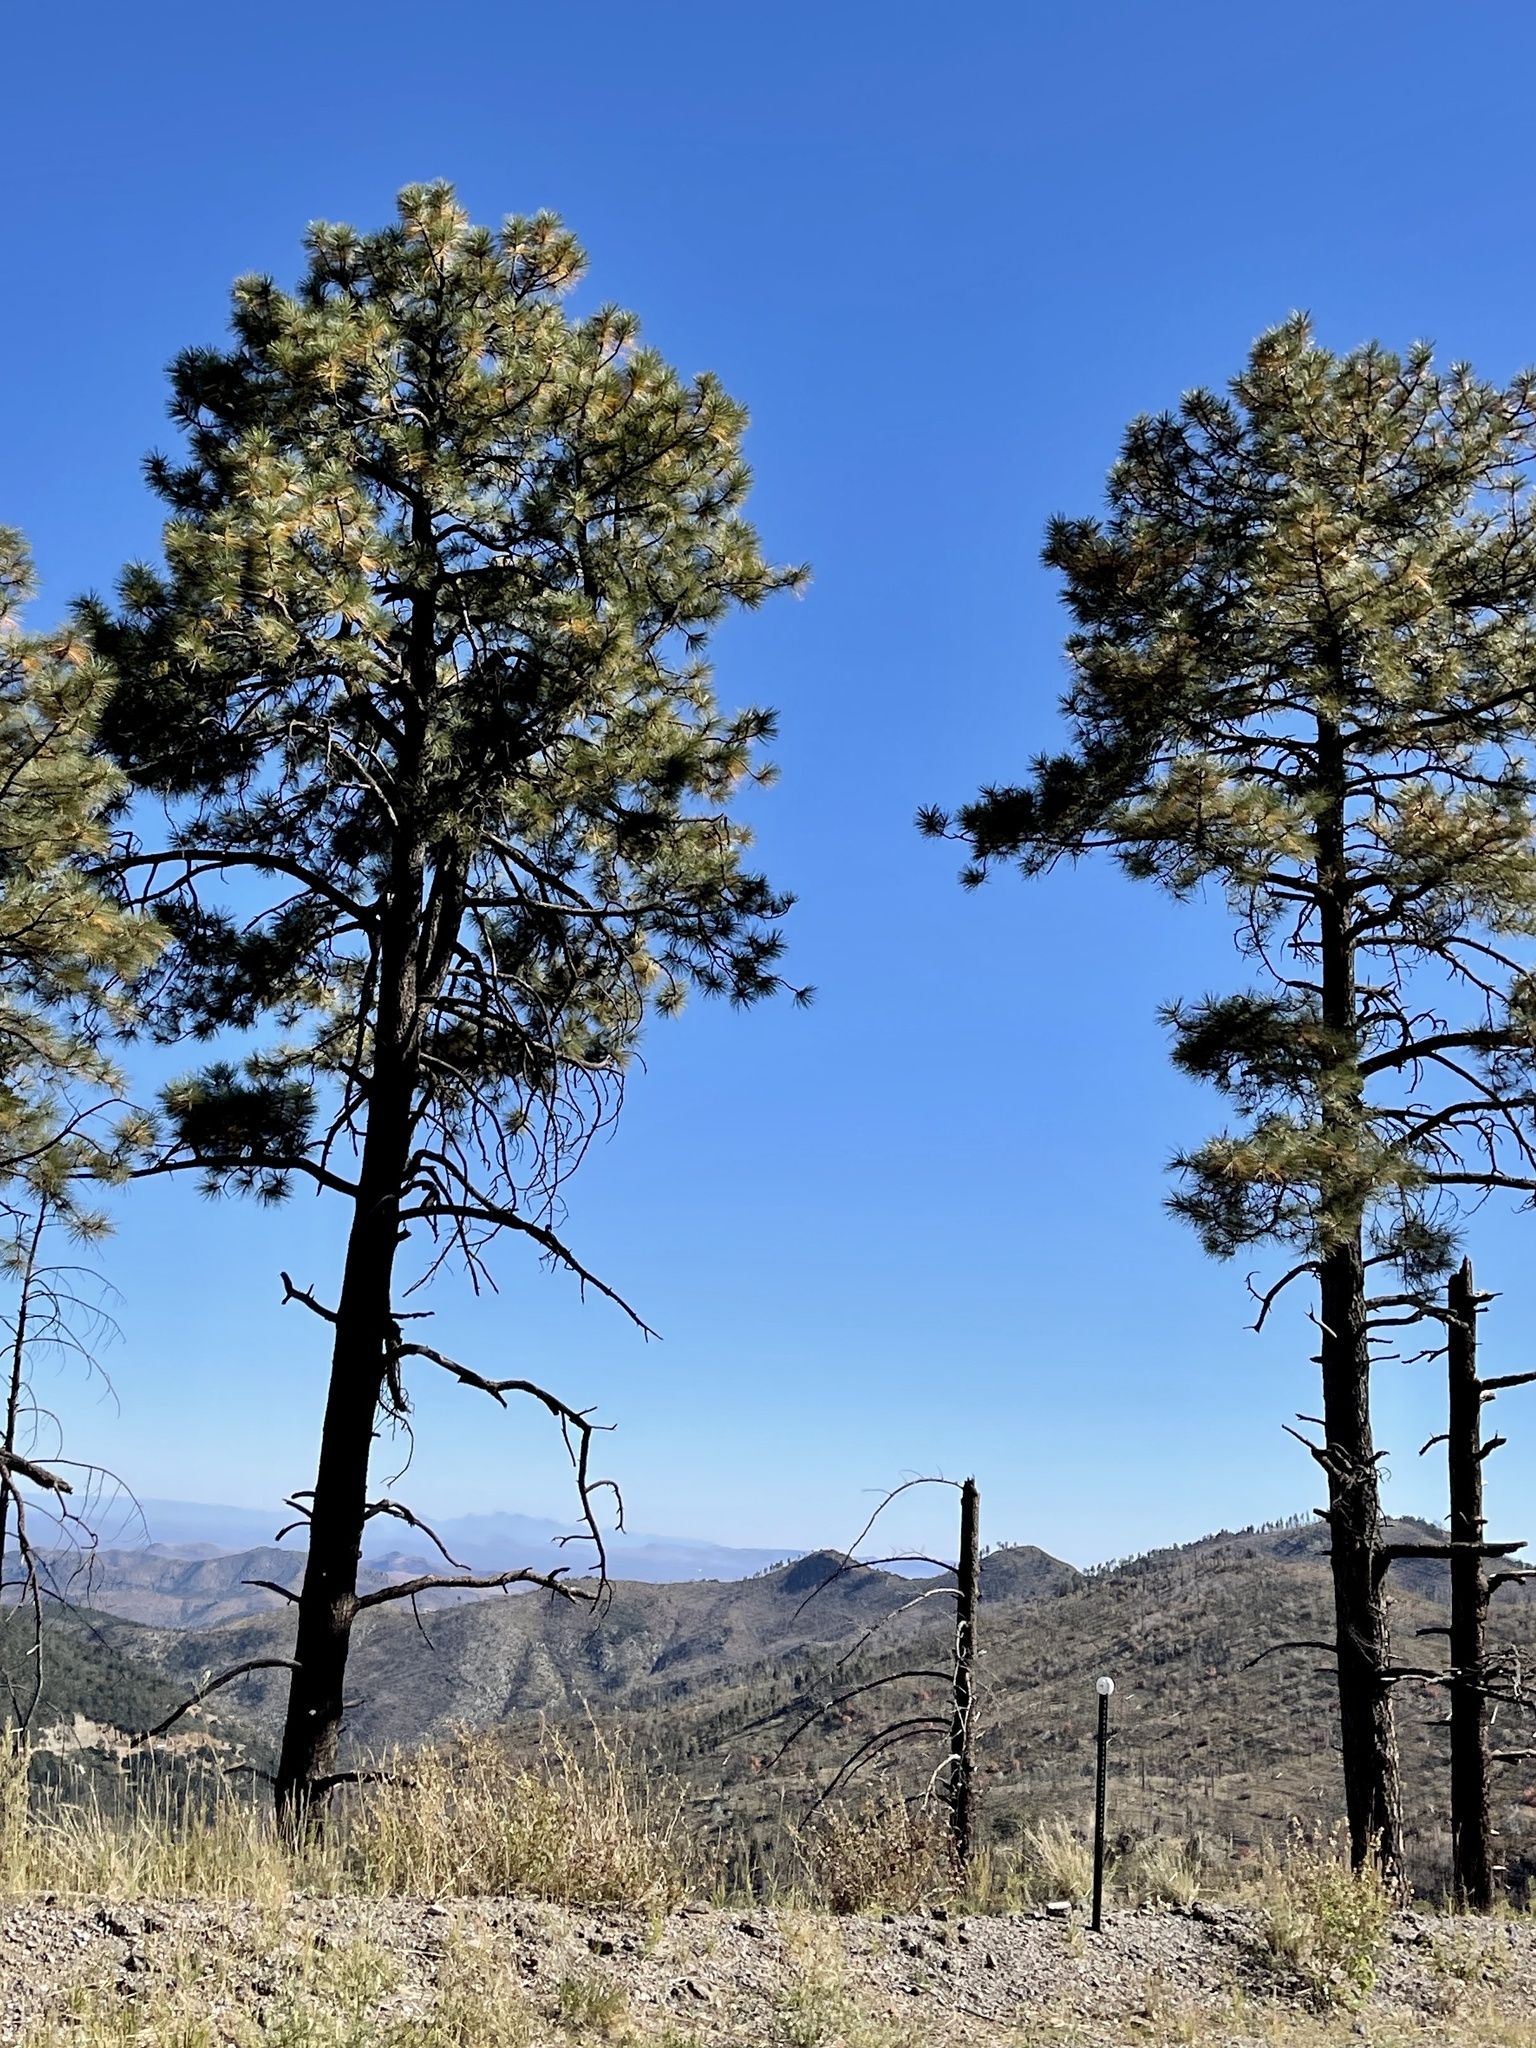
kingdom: Plantae
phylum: Tracheophyta
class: Pinopsida
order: Pinales
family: Pinaceae
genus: Pinus
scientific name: Pinus ponderosa
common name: Western yellow-pine
